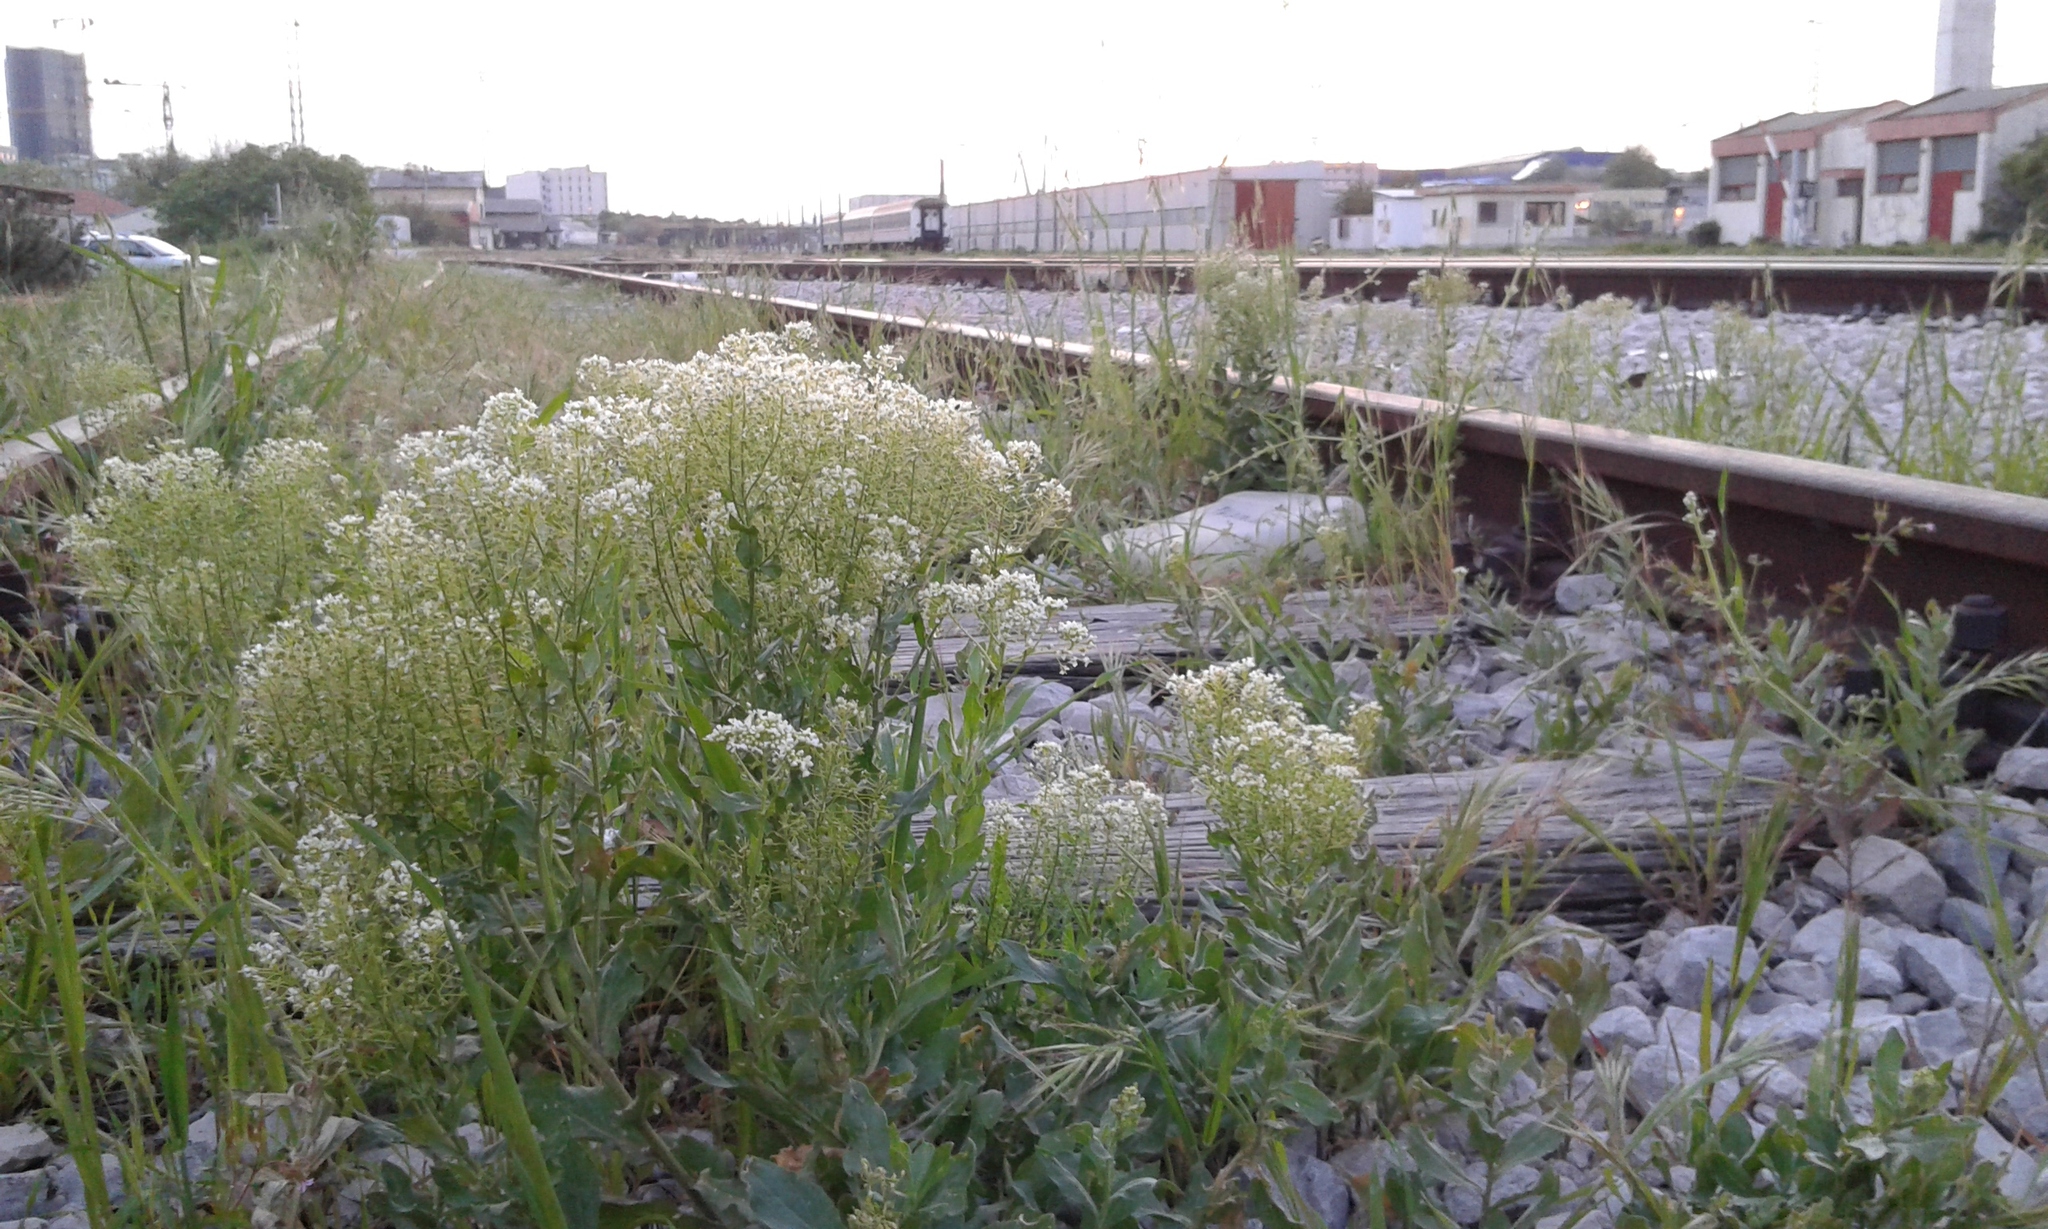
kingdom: Plantae
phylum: Tracheophyta
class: Magnoliopsida
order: Brassicales
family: Brassicaceae
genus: Lepidium
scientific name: Lepidium draba
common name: Hoary cress
